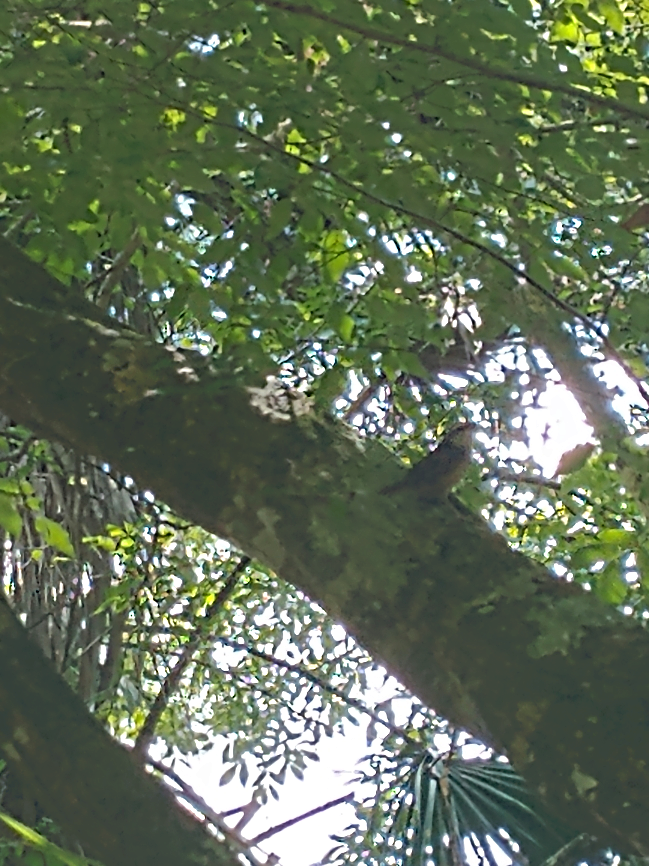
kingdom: Animalia
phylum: Chordata
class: Aves
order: Passeriformes
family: Troglodytidae
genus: Thryothorus
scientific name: Thryothorus ludovicianus
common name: Carolina wren
